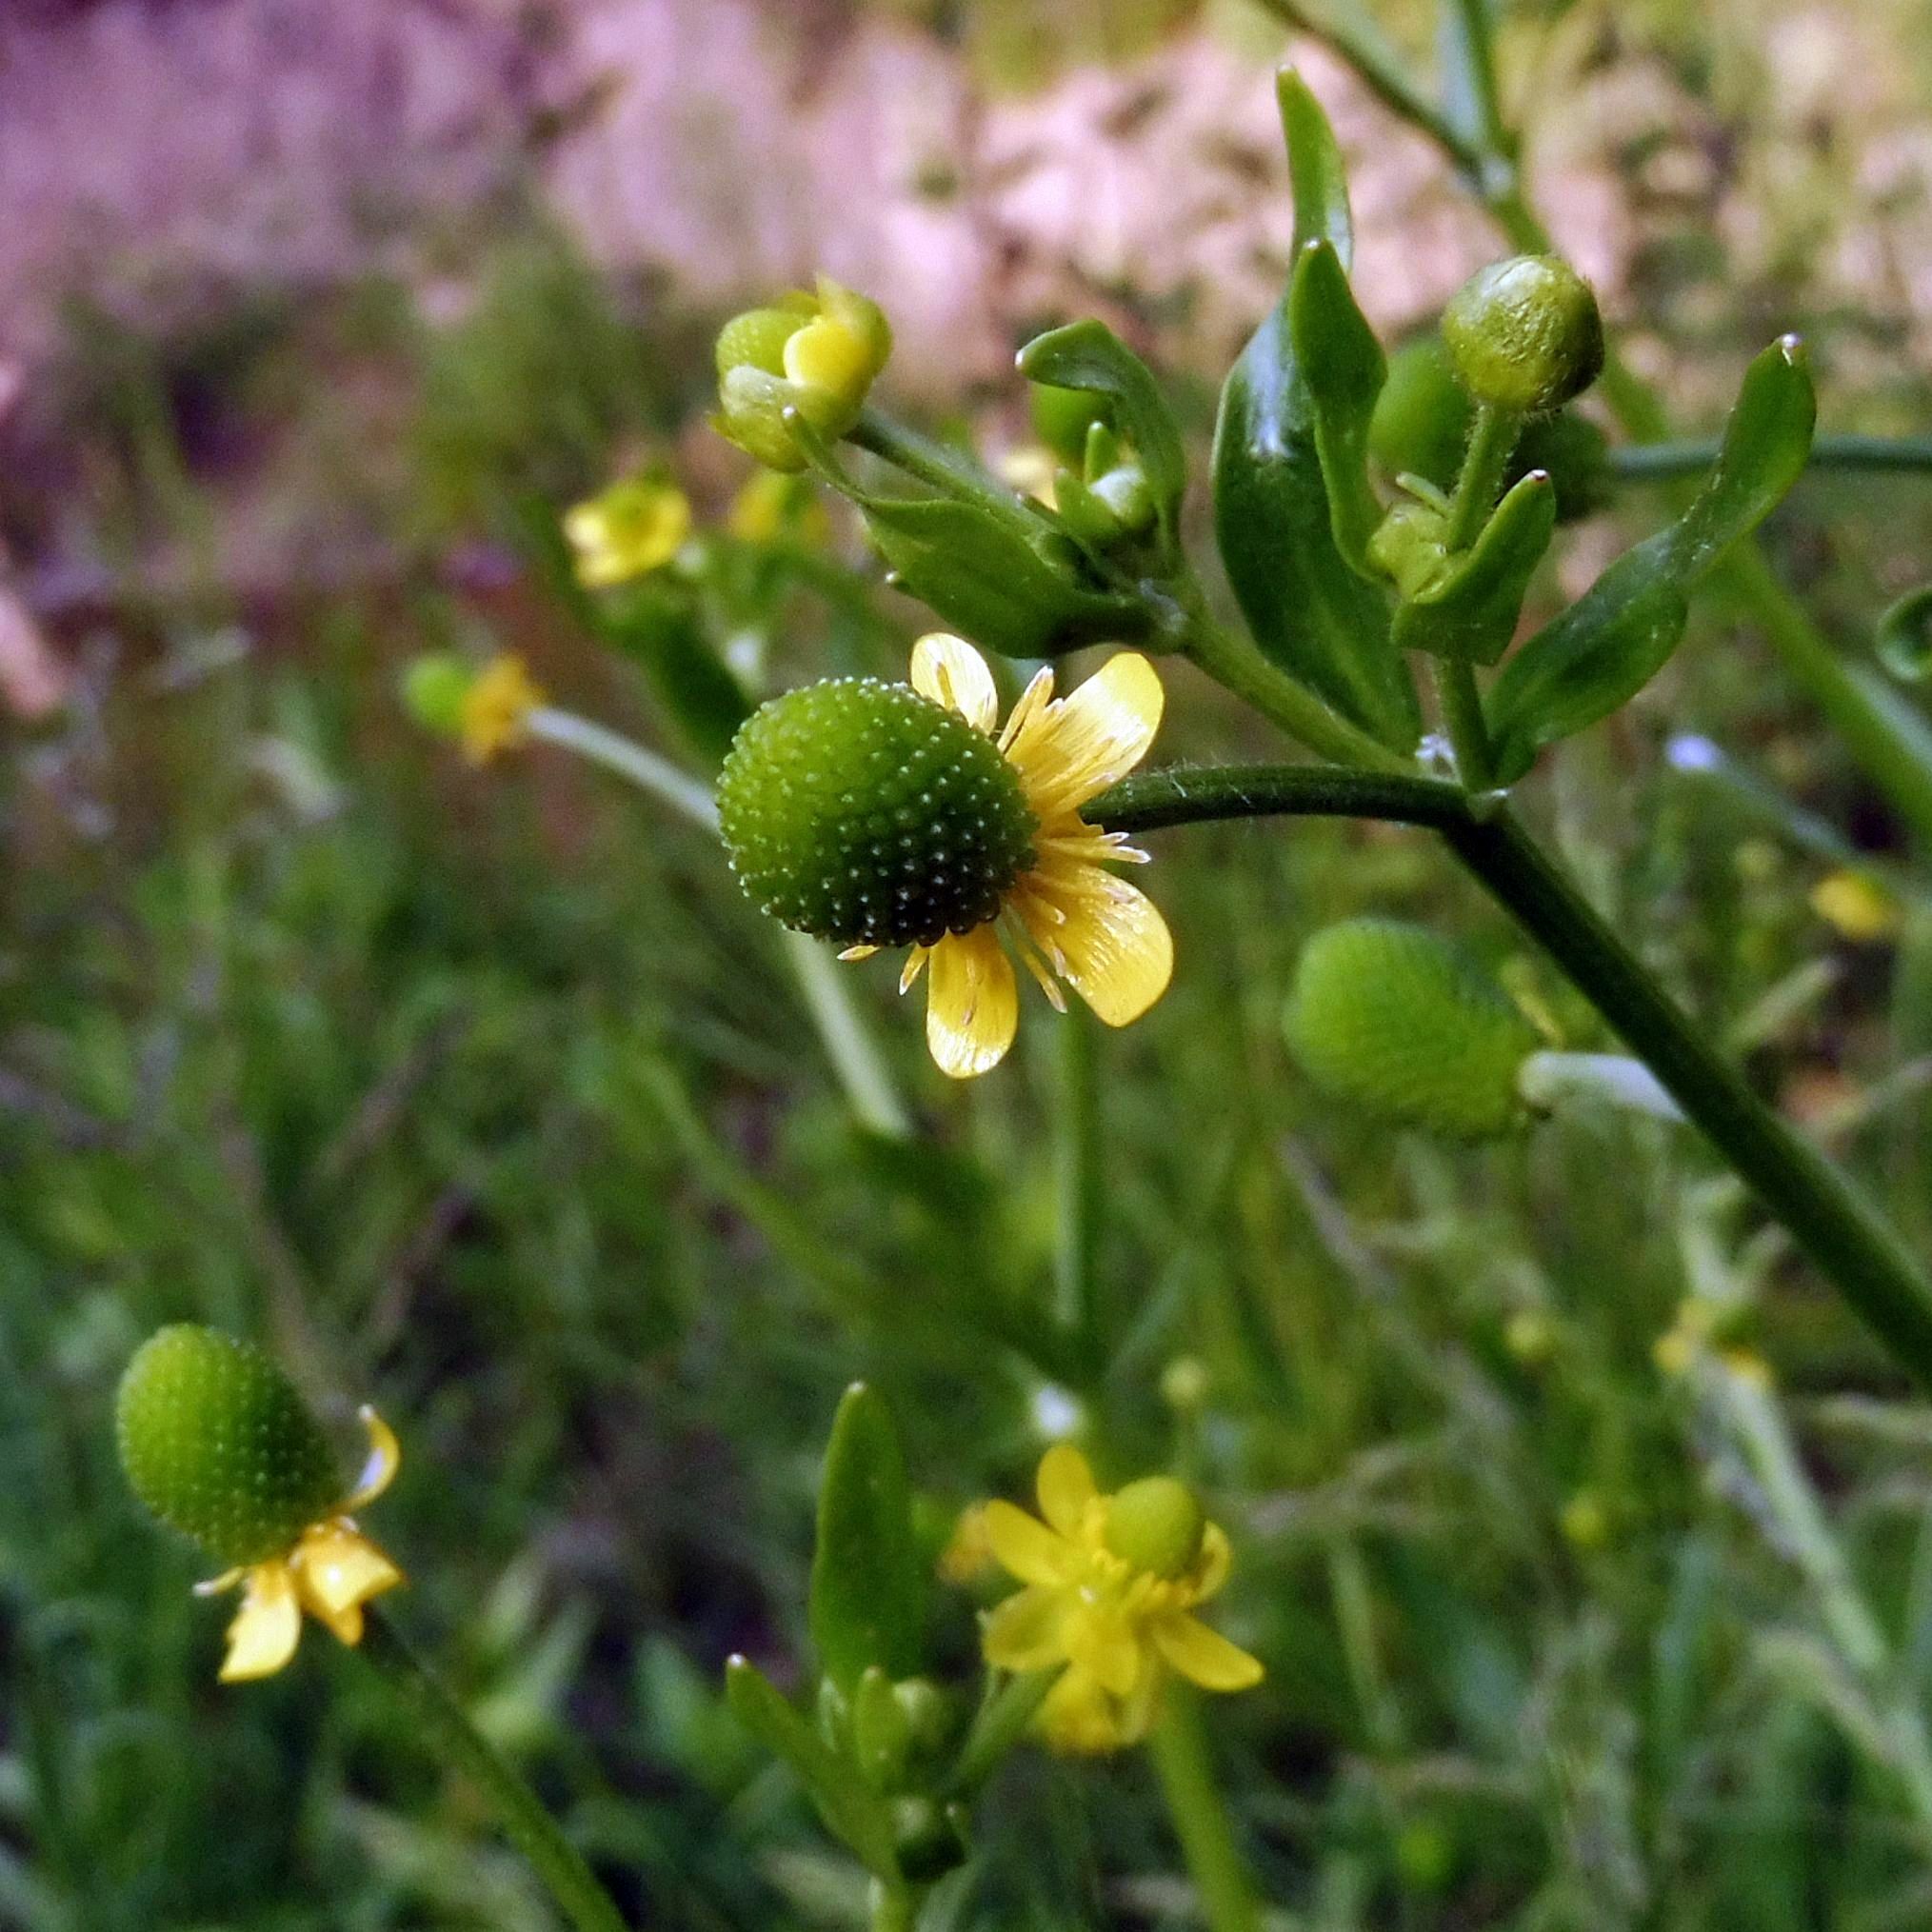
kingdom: Plantae
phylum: Tracheophyta
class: Magnoliopsida
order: Ranunculales
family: Ranunculaceae
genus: Ranunculus
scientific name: Ranunculus sceleratus
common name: Celery-leaved buttercup
